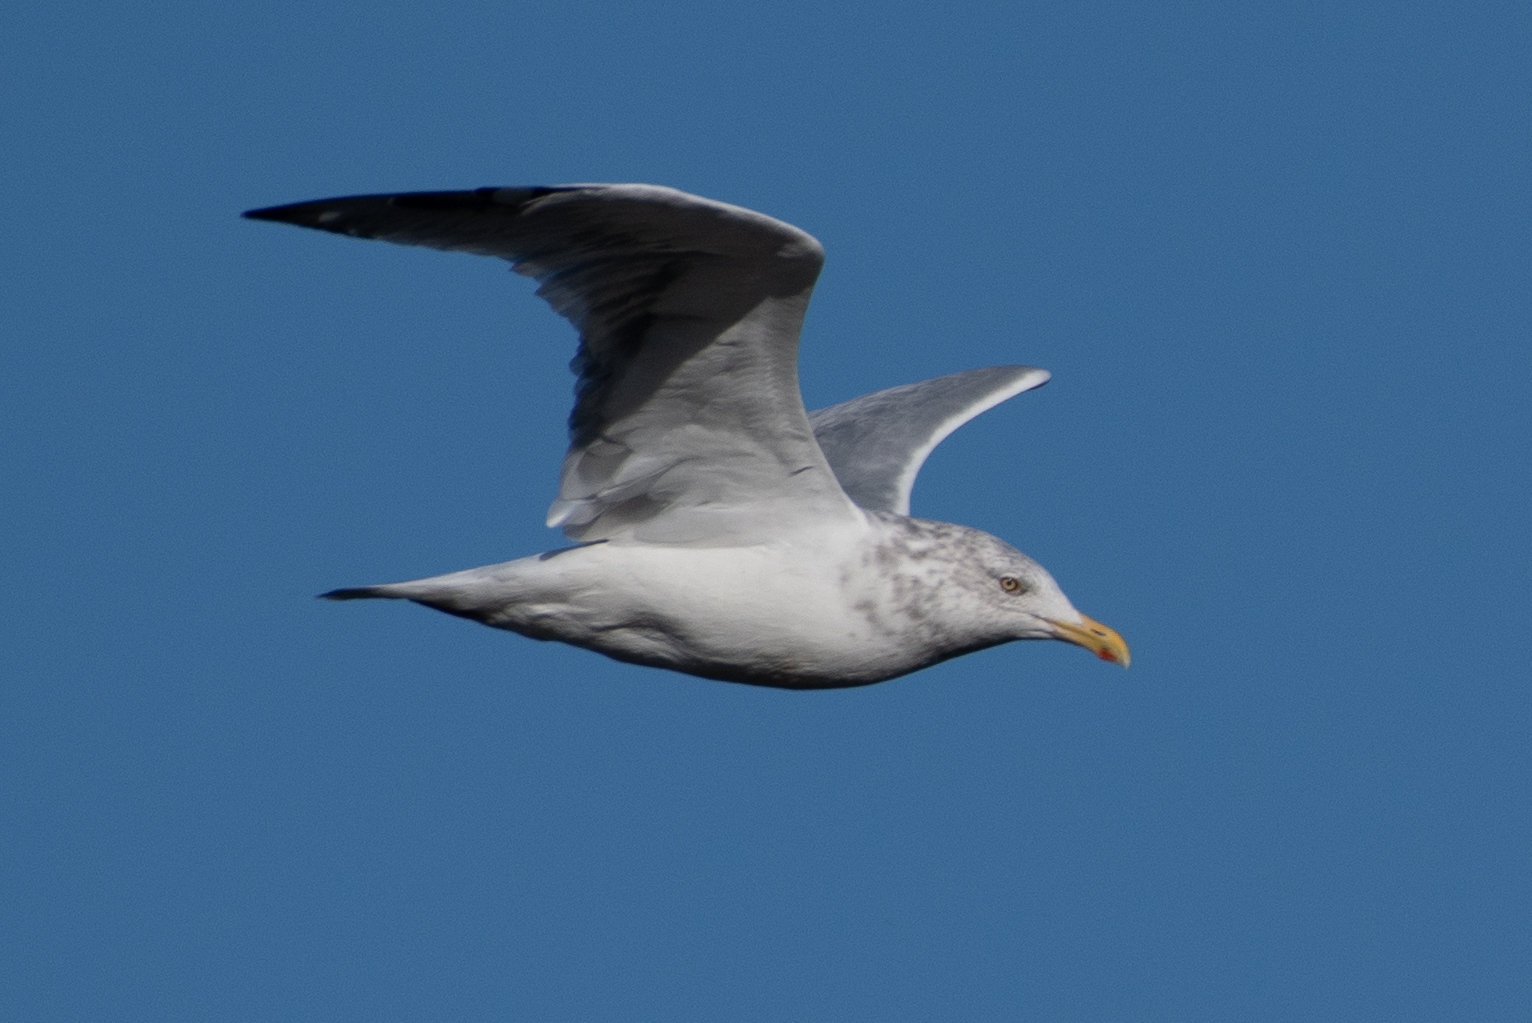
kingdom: Animalia
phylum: Chordata
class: Aves
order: Charadriiformes
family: Laridae
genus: Larus
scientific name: Larus argentatus
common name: Herring gull
